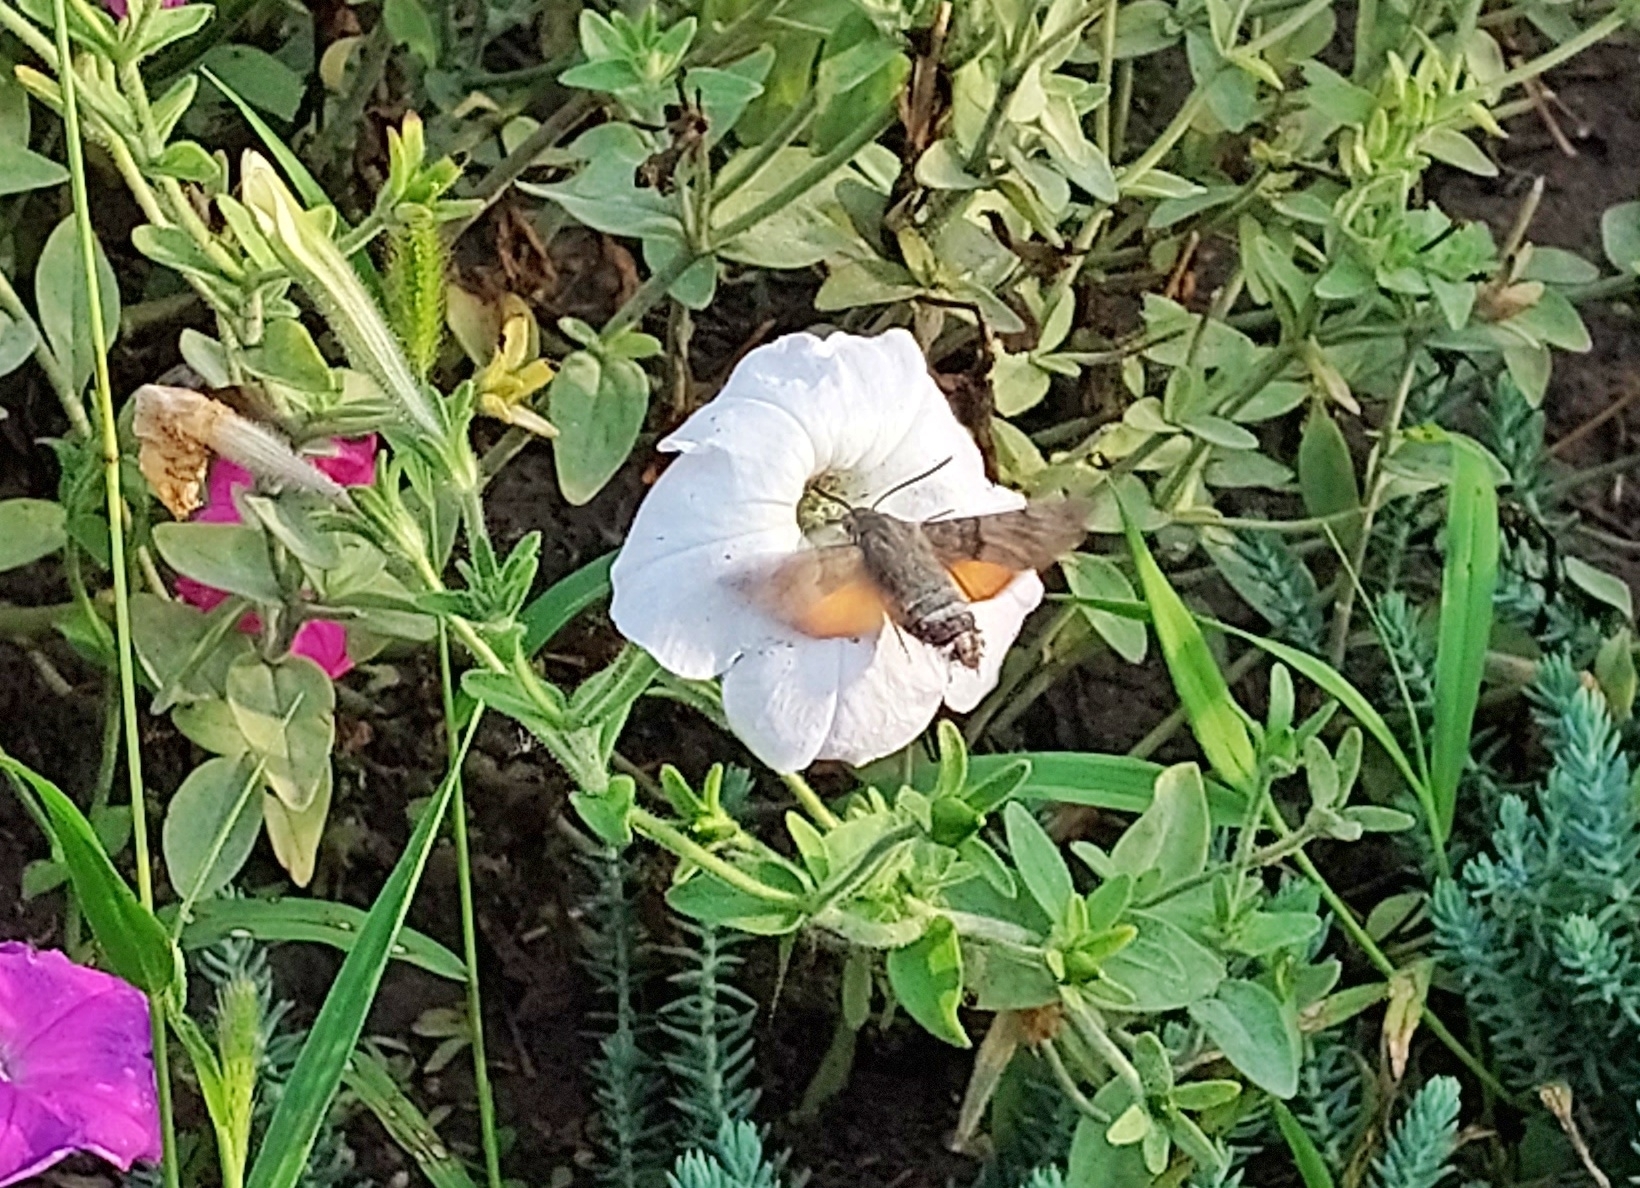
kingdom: Animalia
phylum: Arthropoda
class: Insecta
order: Lepidoptera
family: Sphingidae
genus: Macroglossum
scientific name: Macroglossum stellatarum
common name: Humming-bird hawk-moth
